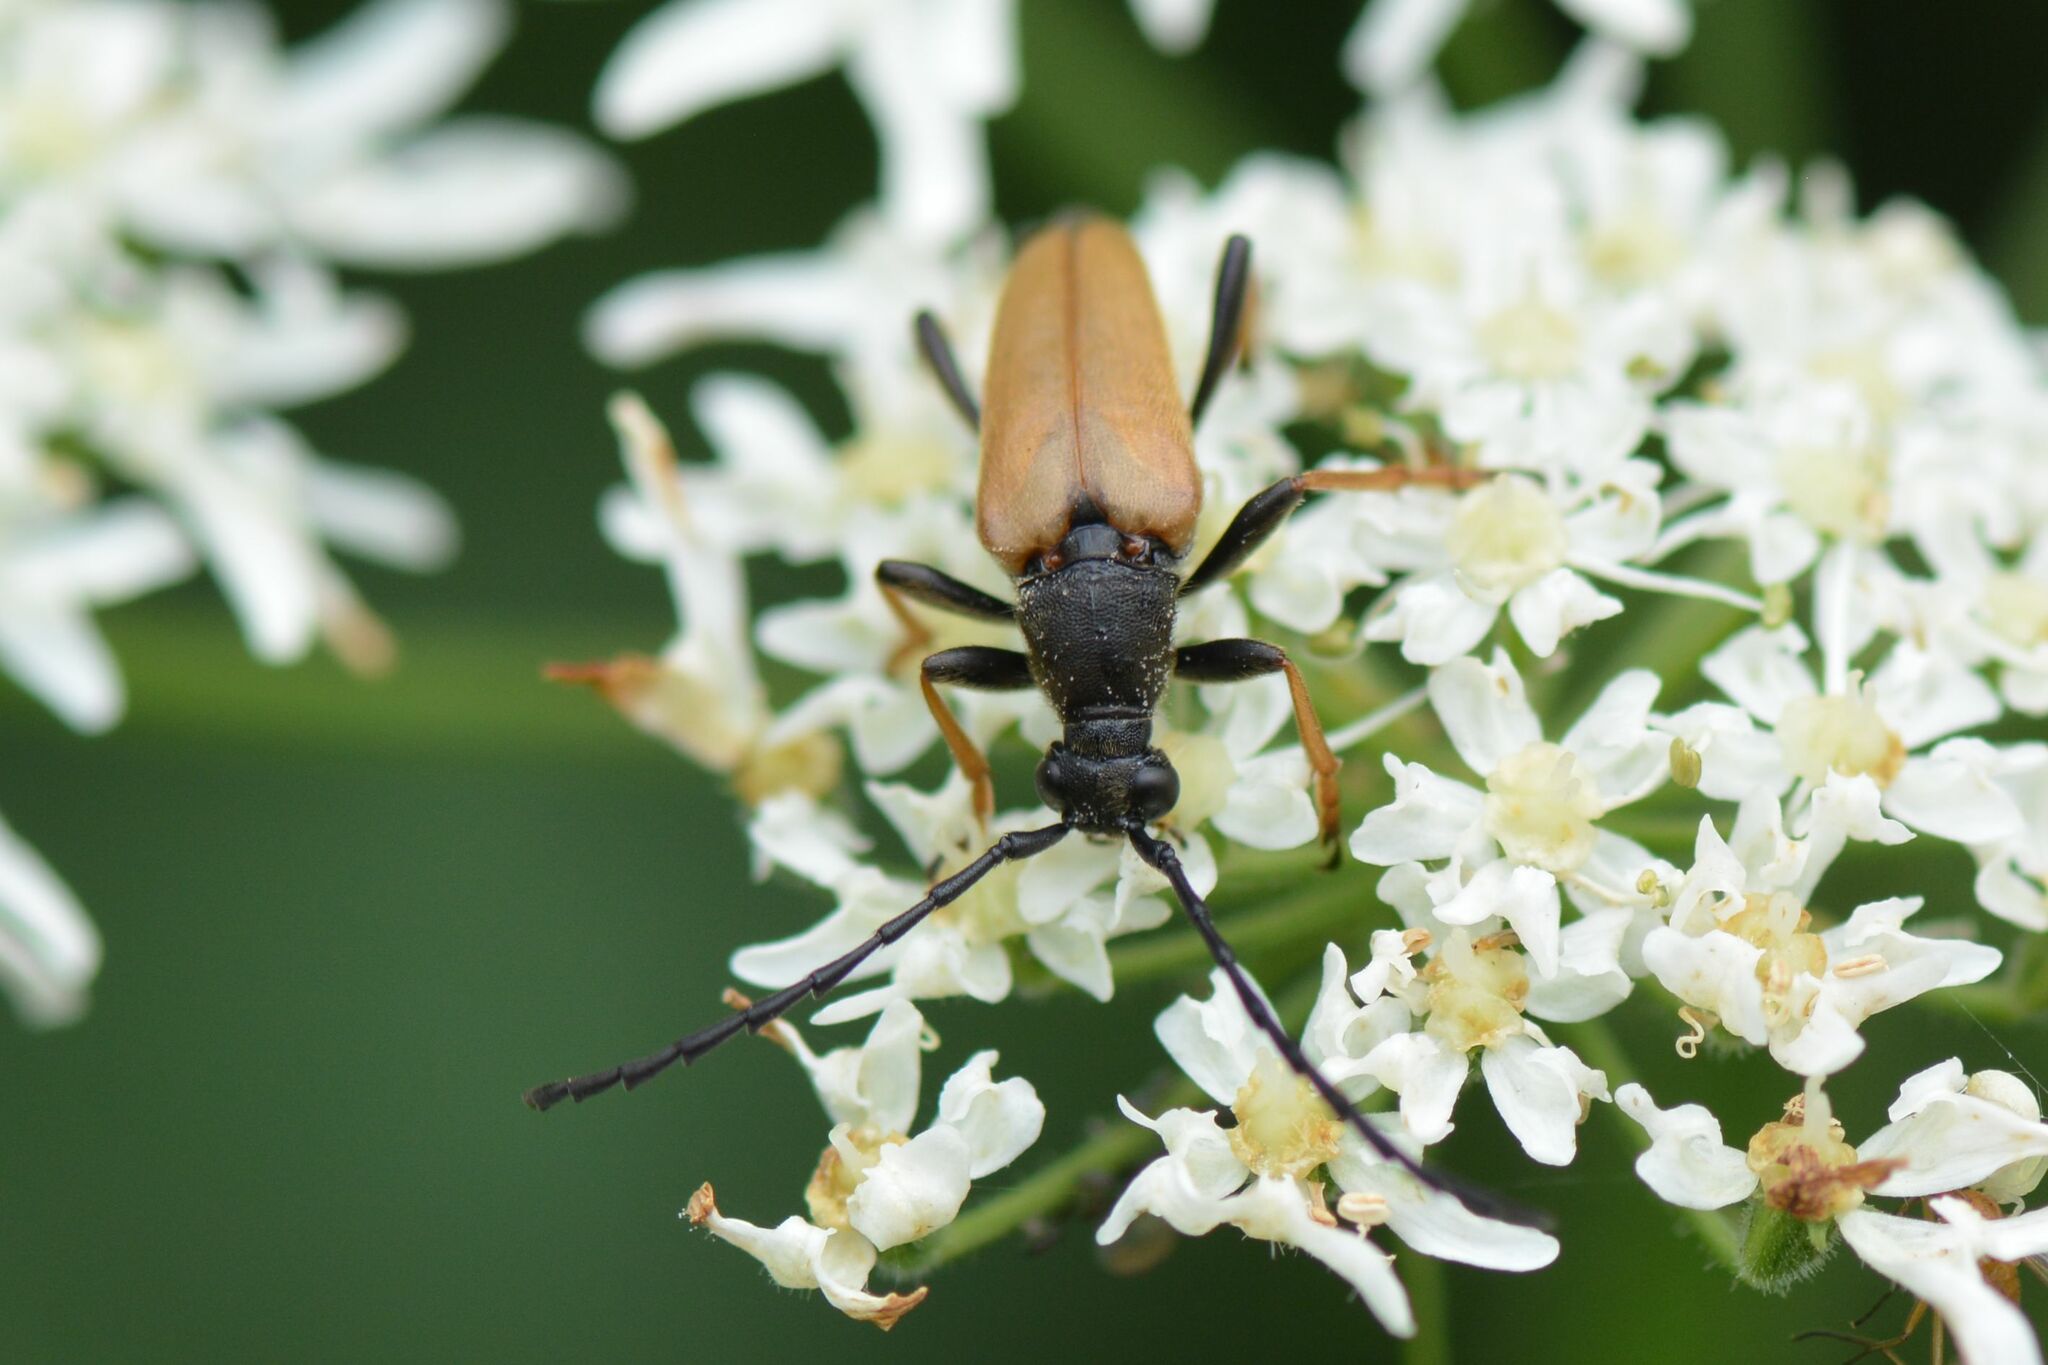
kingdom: Animalia
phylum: Arthropoda
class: Insecta
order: Coleoptera
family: Cerambycidae
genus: Stictoleptura
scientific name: Stictoleptura rubra
